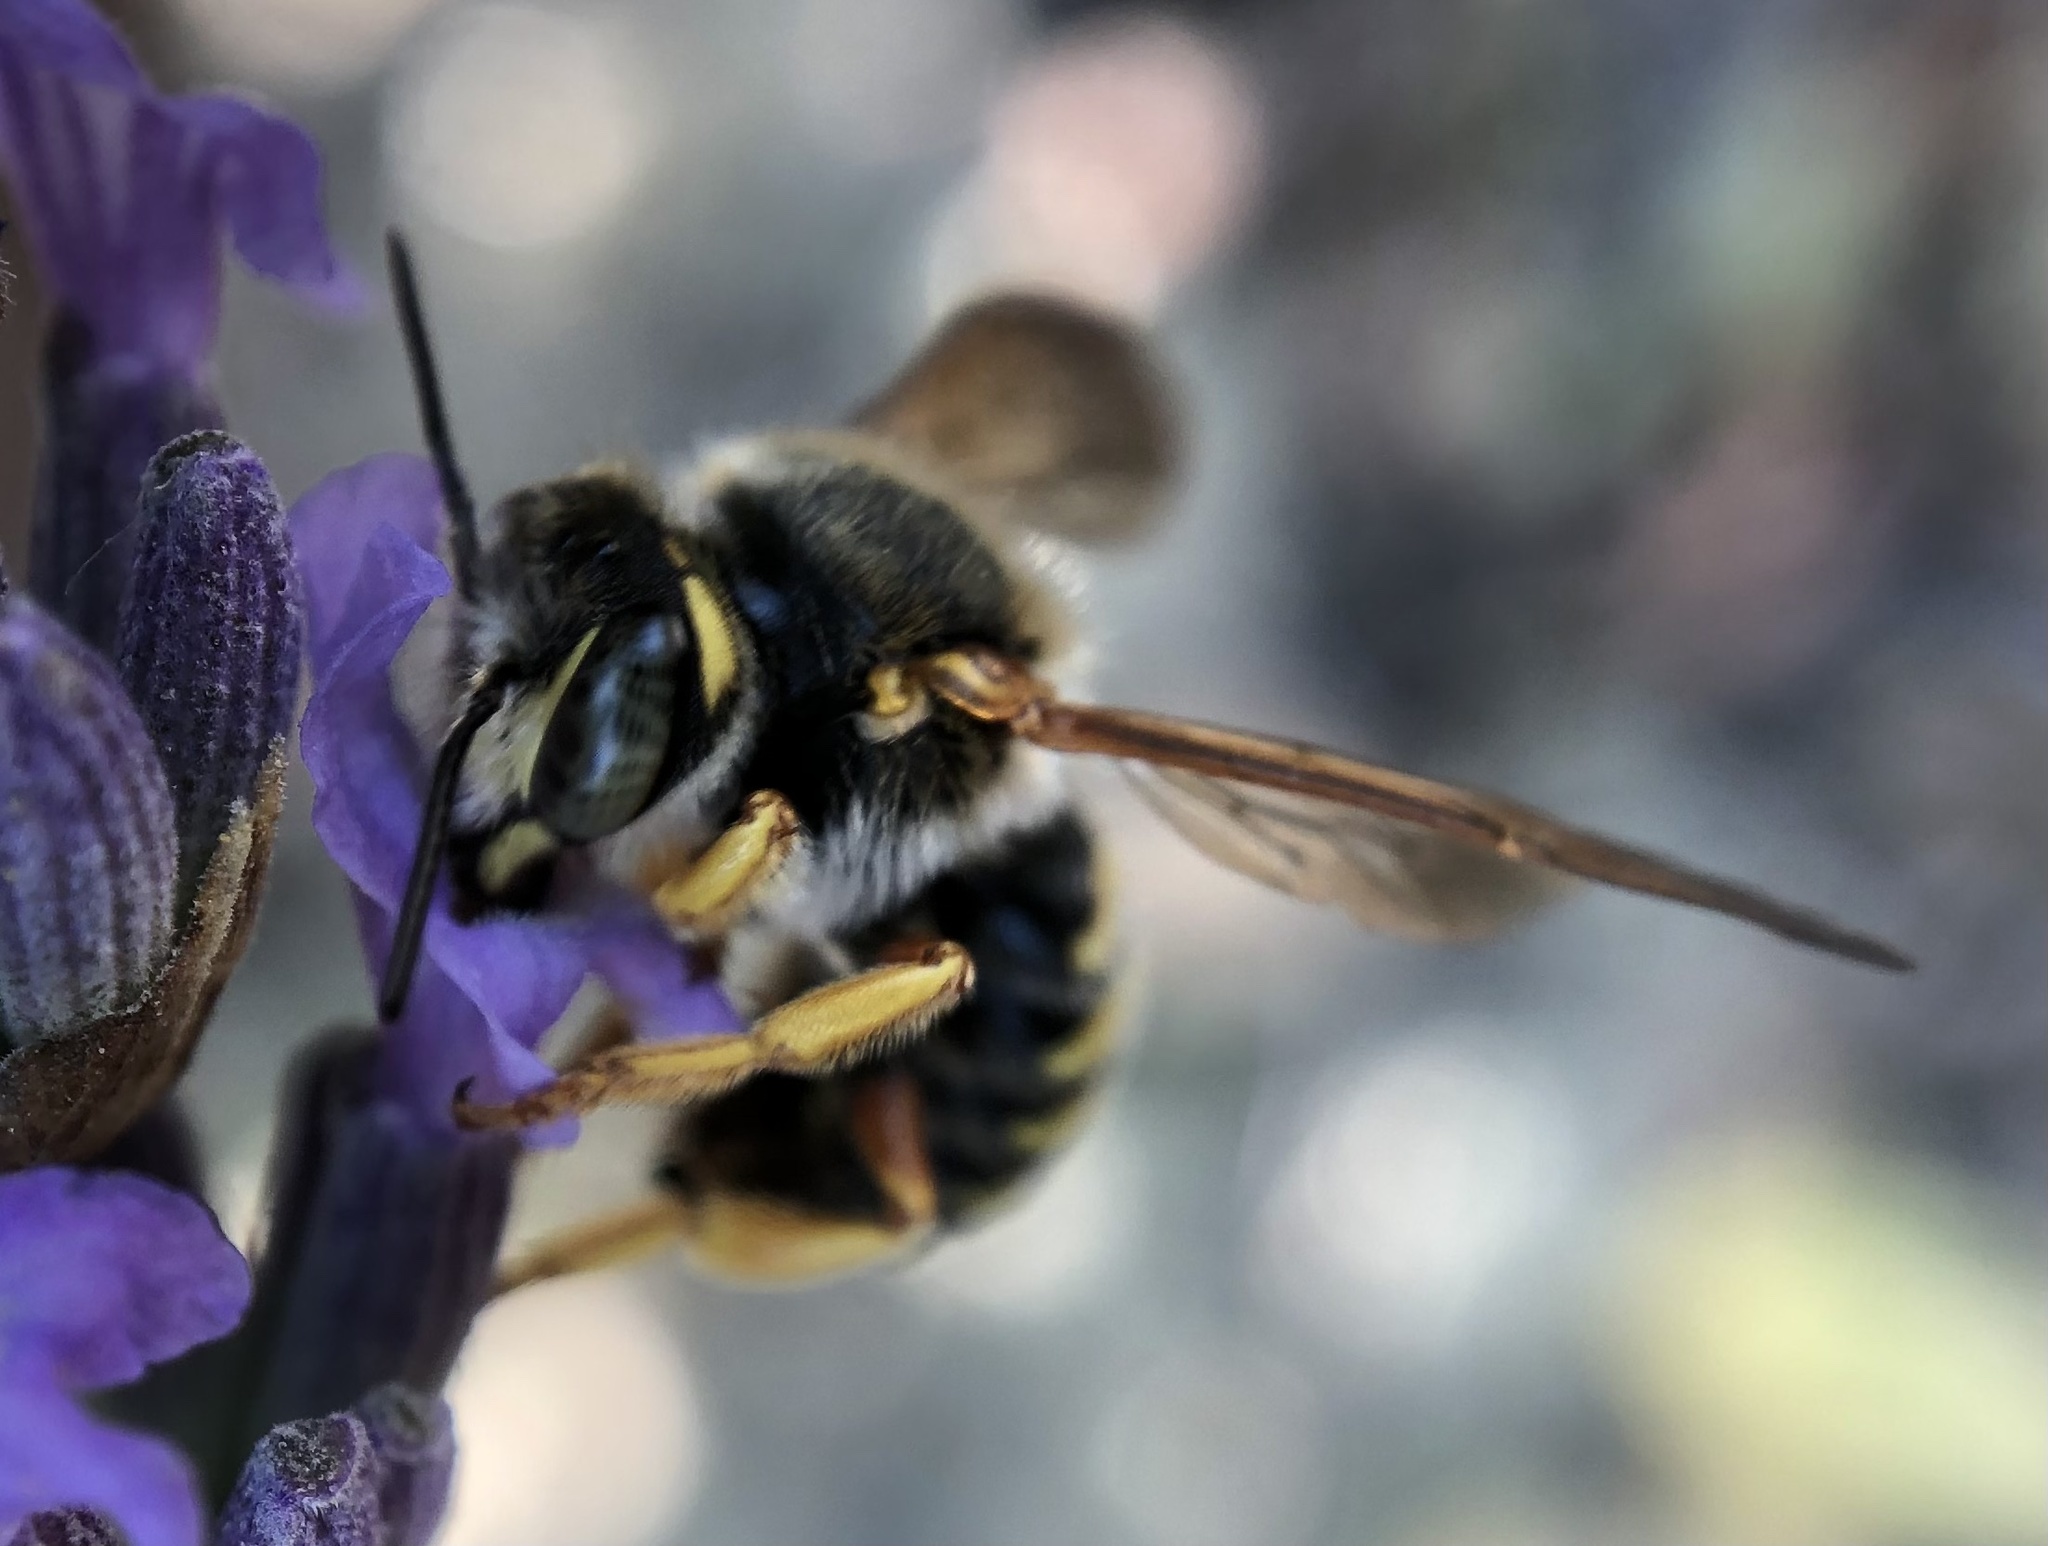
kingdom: Animalia
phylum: Arthropoda
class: Insecta
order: Hymenoptera
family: Megachilidae
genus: Rhodanthidium
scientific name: Rhodanthidium septemdentatum
